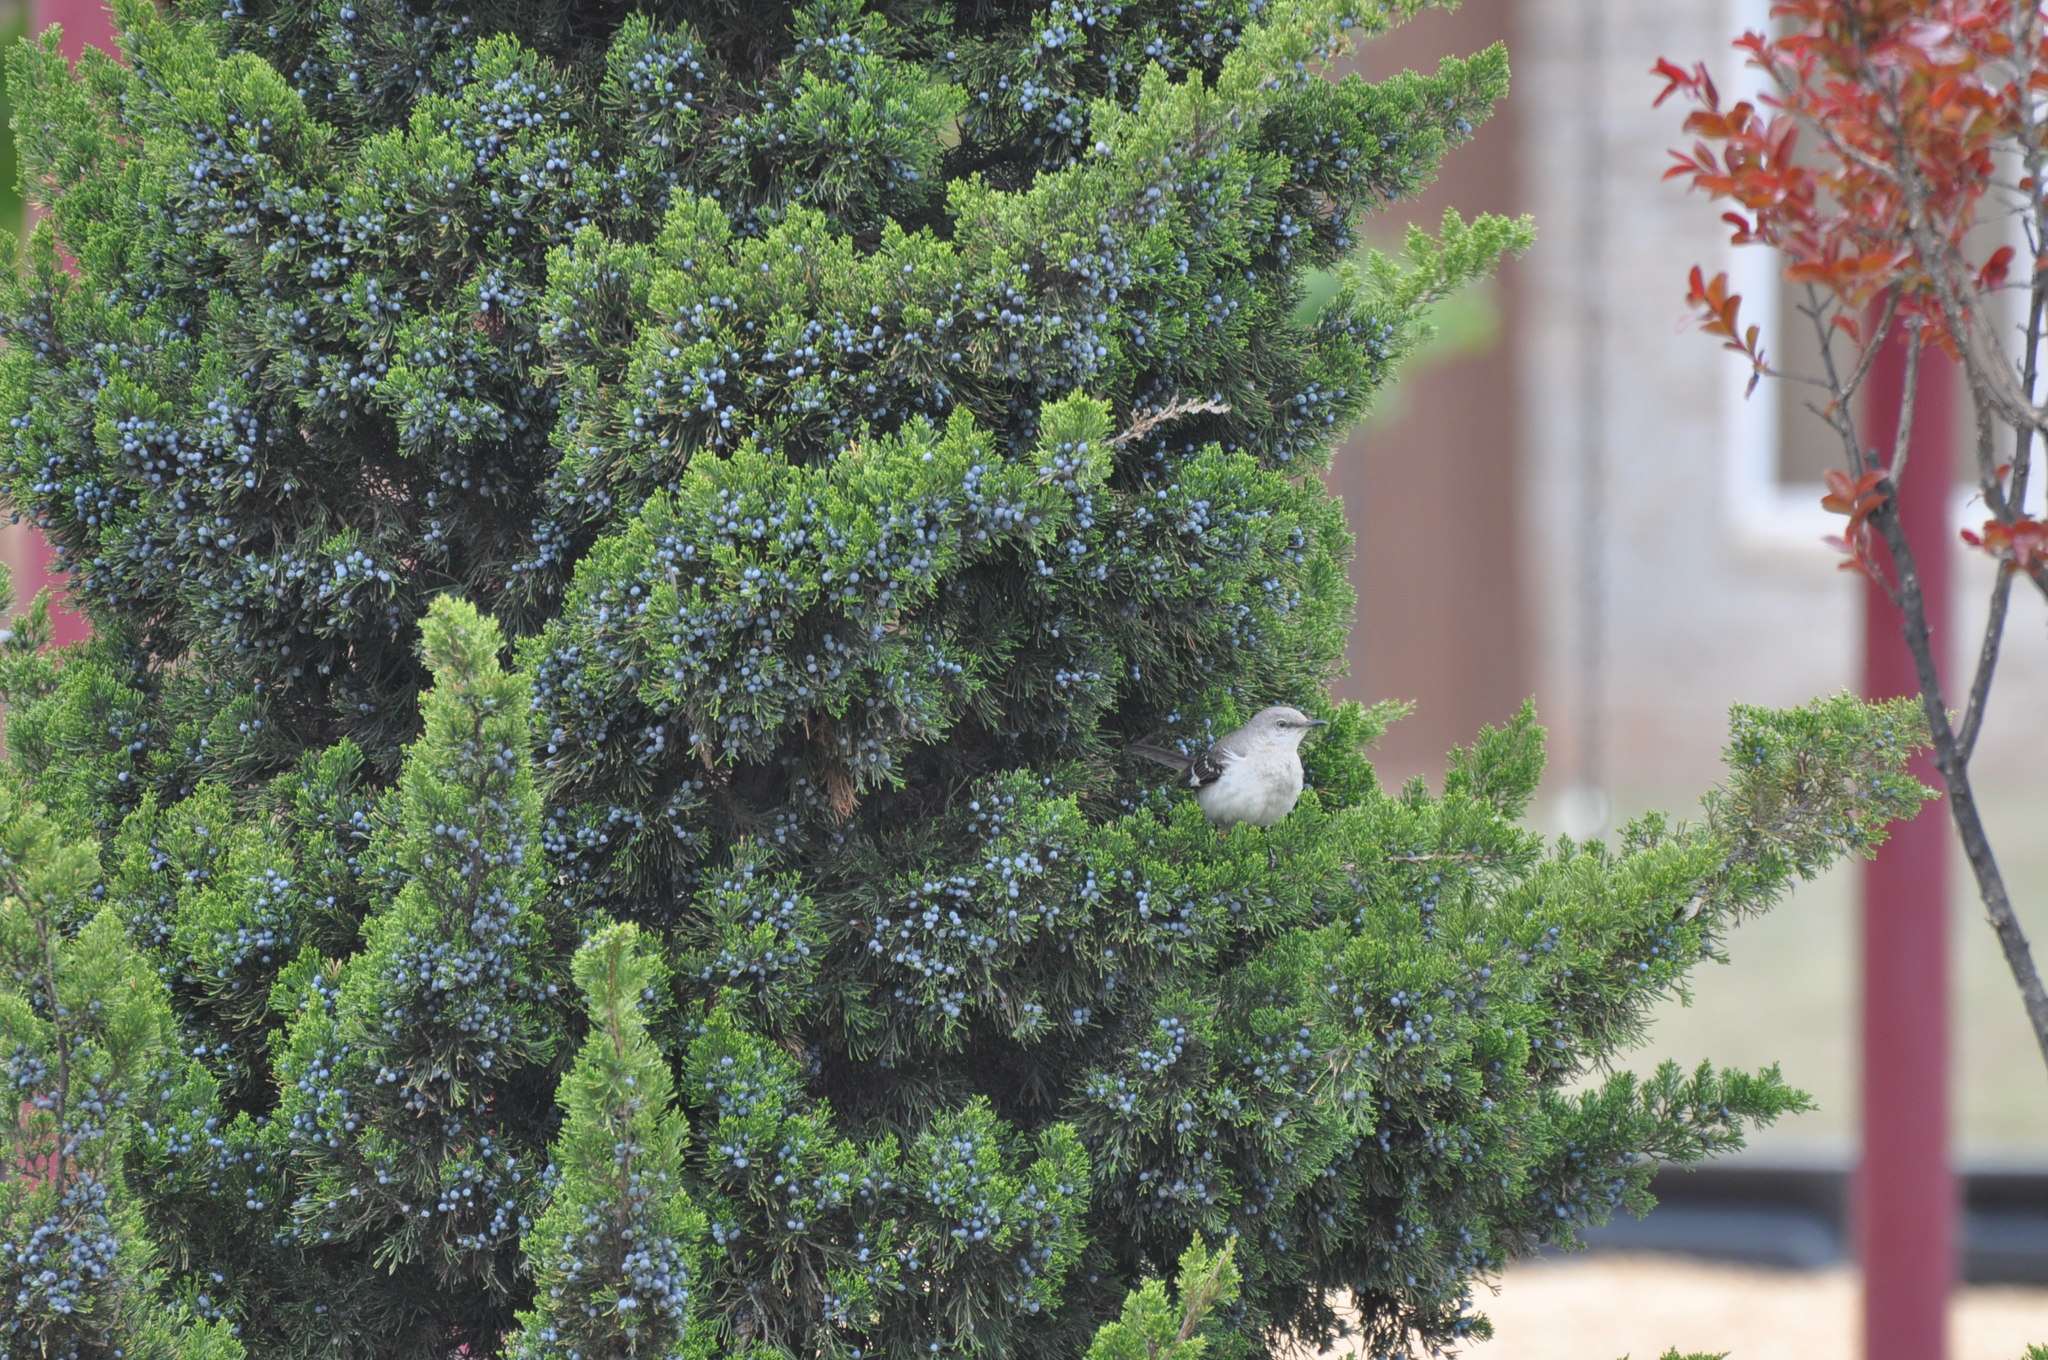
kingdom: Animalia
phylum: Chordata
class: Aves
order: Passeriformes
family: Mimidae
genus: Mimus
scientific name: Mimus polyglottos
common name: Northern mockingbird
